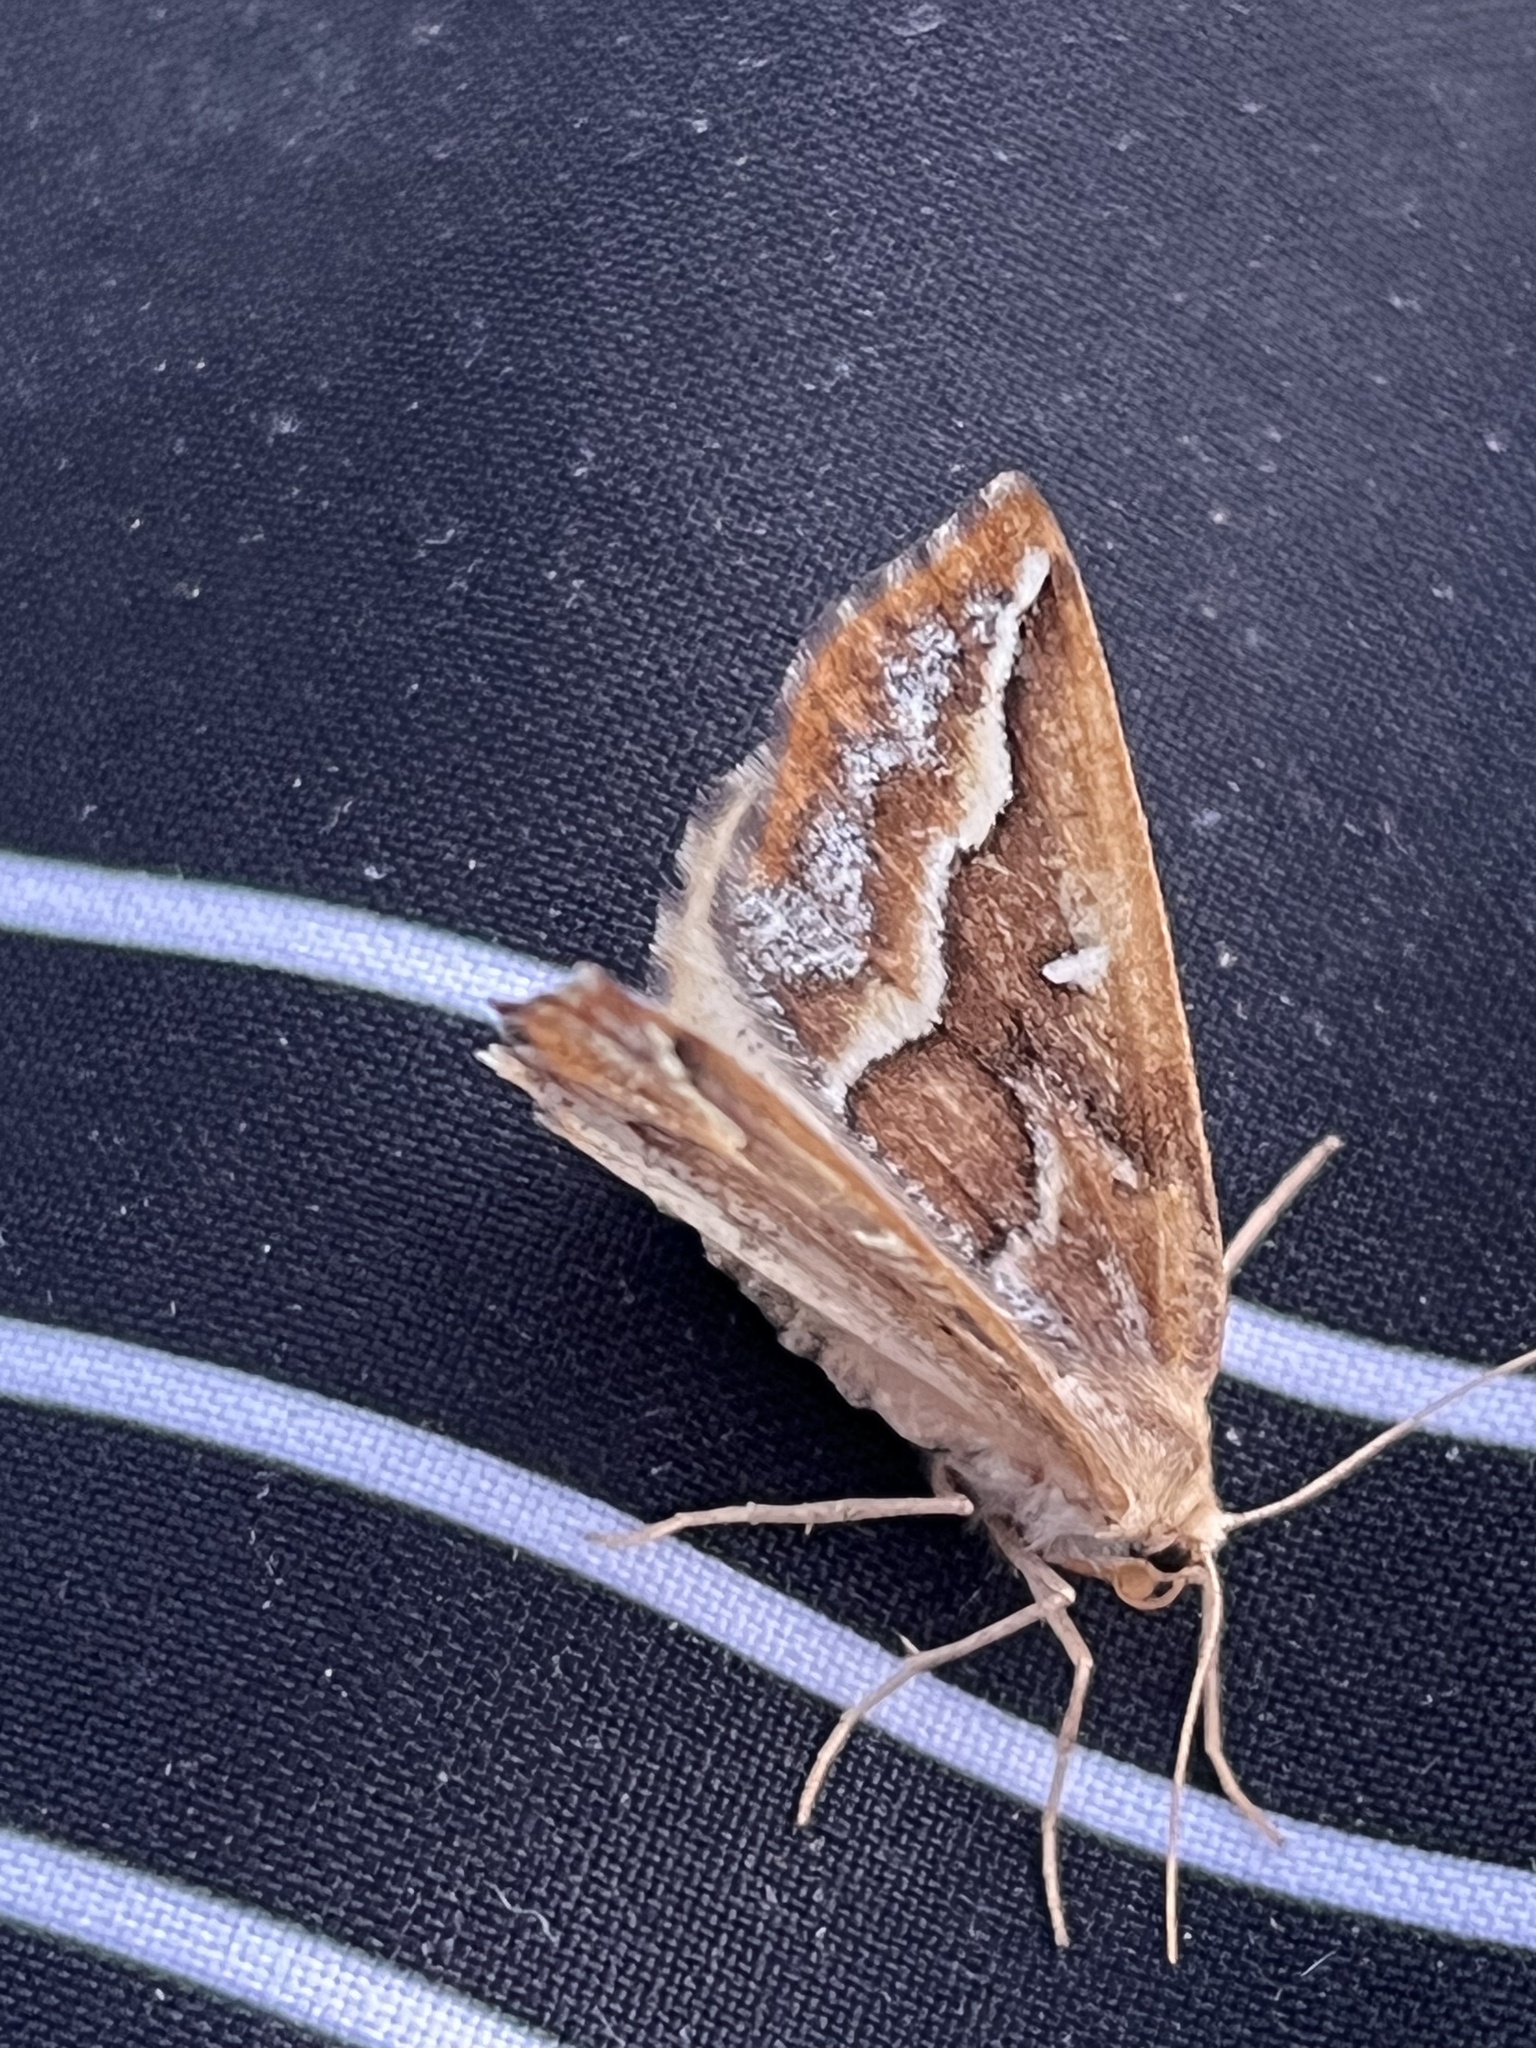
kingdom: Animalia
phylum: Arthropoda
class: Insecta
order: Lepidoptera
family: Geometridae
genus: Caripeta
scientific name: Caripeta angustiorata
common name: Brown pine looper
